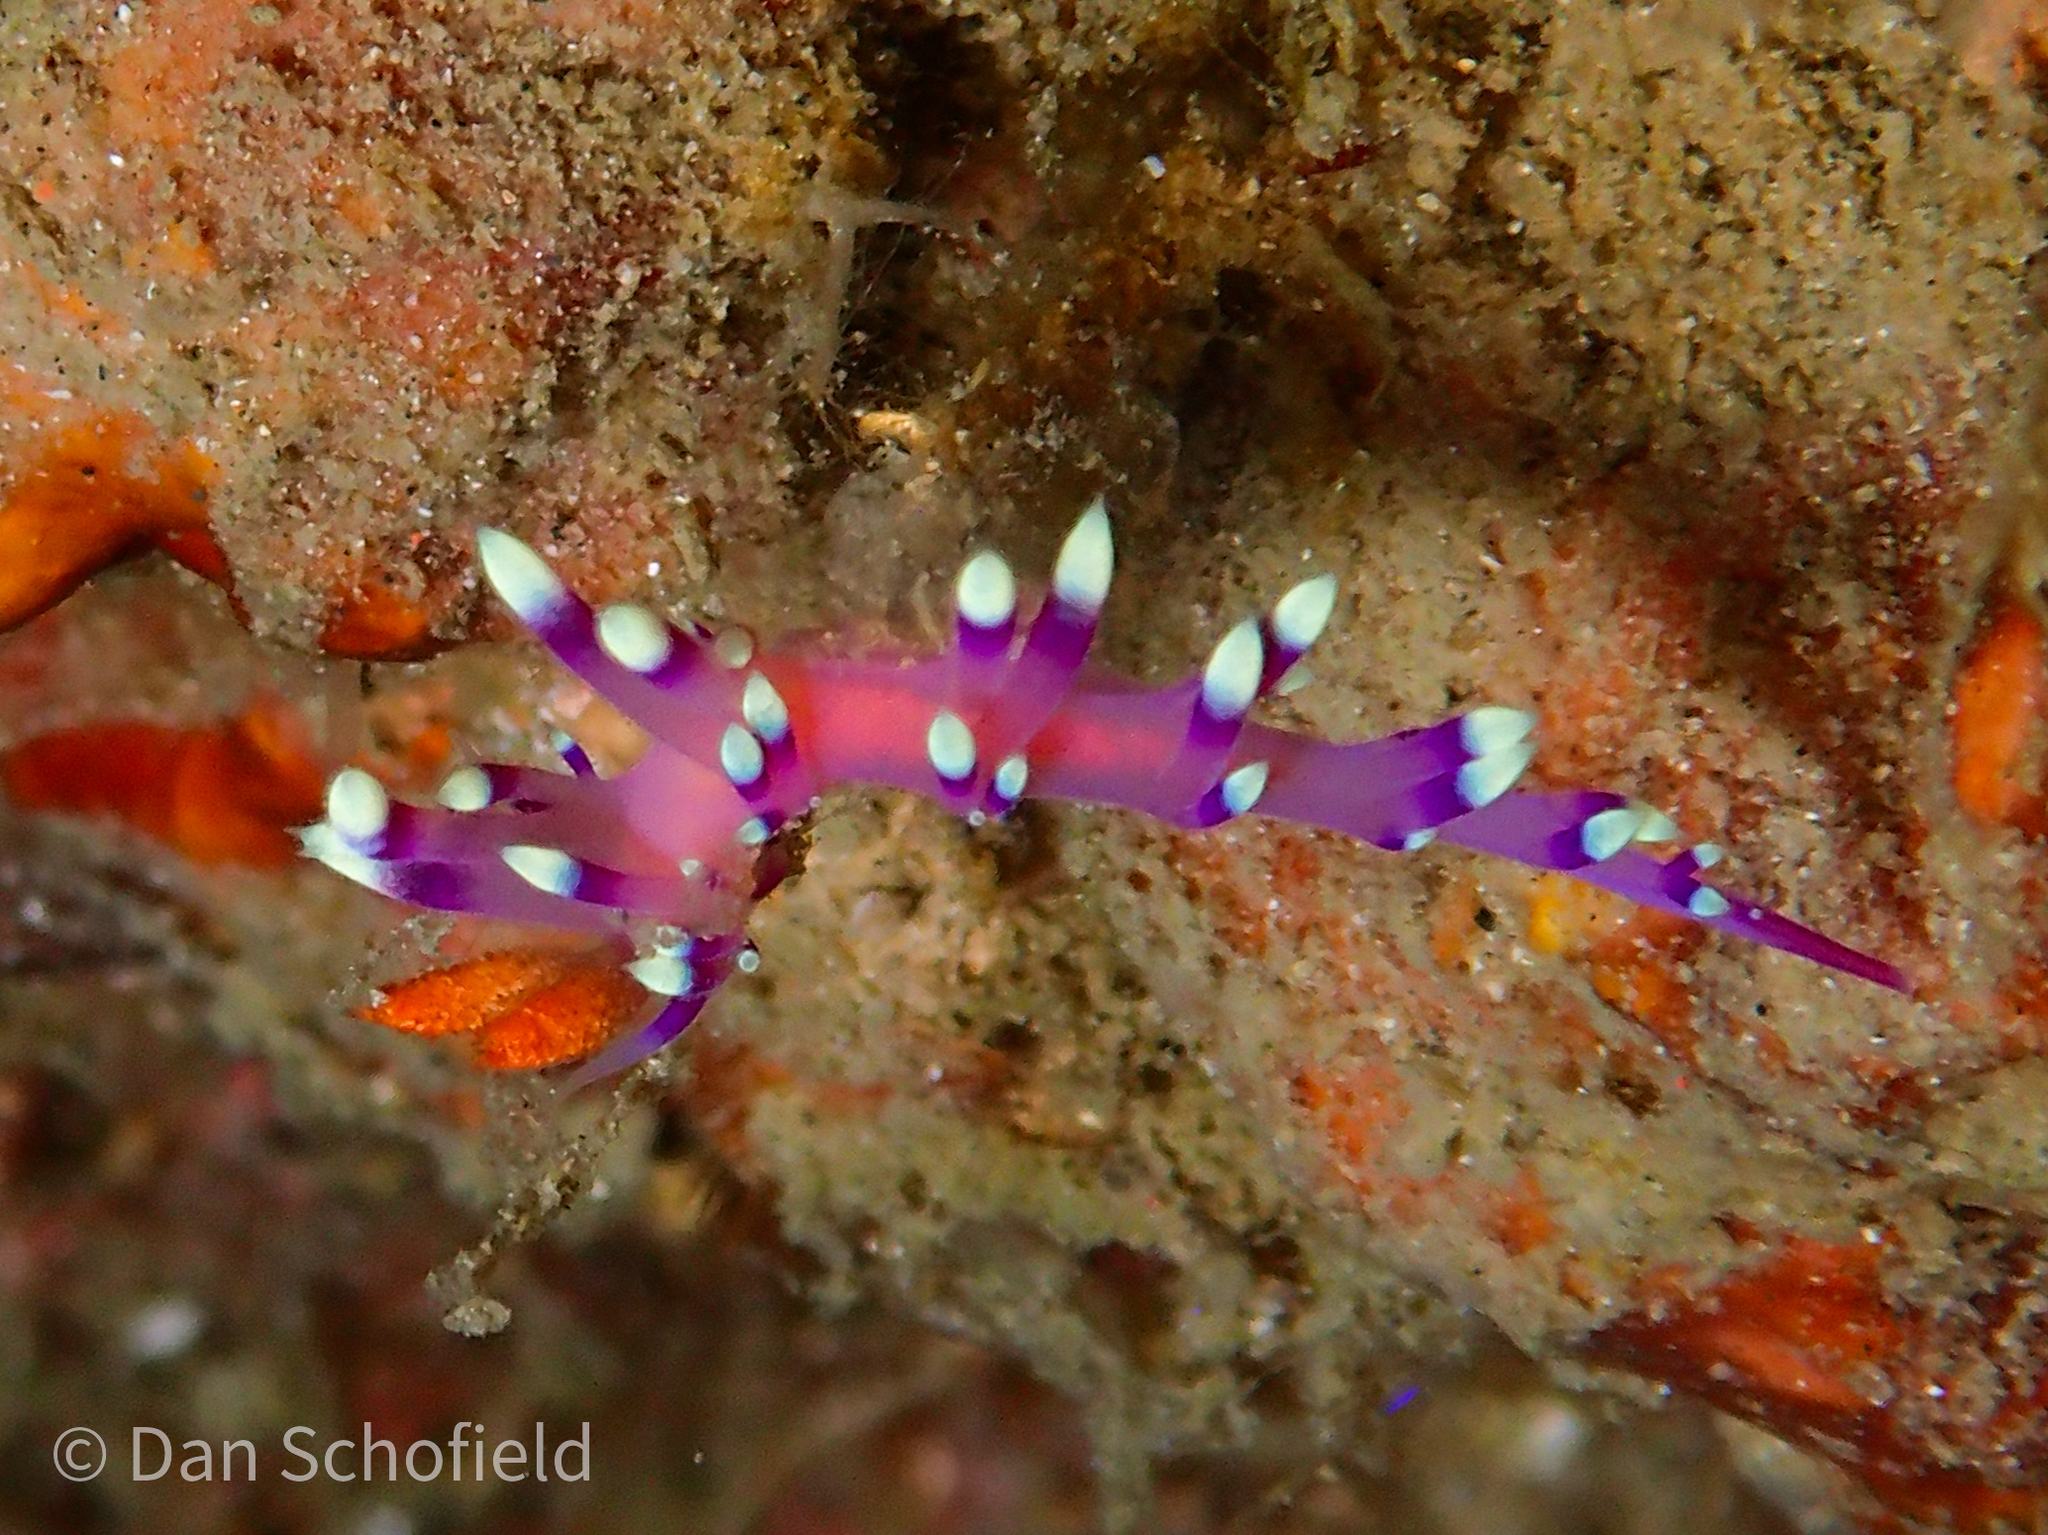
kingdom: Animalia
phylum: Mollusca
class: Gastropoda
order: Nudibranchia
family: Flabellinidae
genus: Coryphellina
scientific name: Coryphellina exoptata
